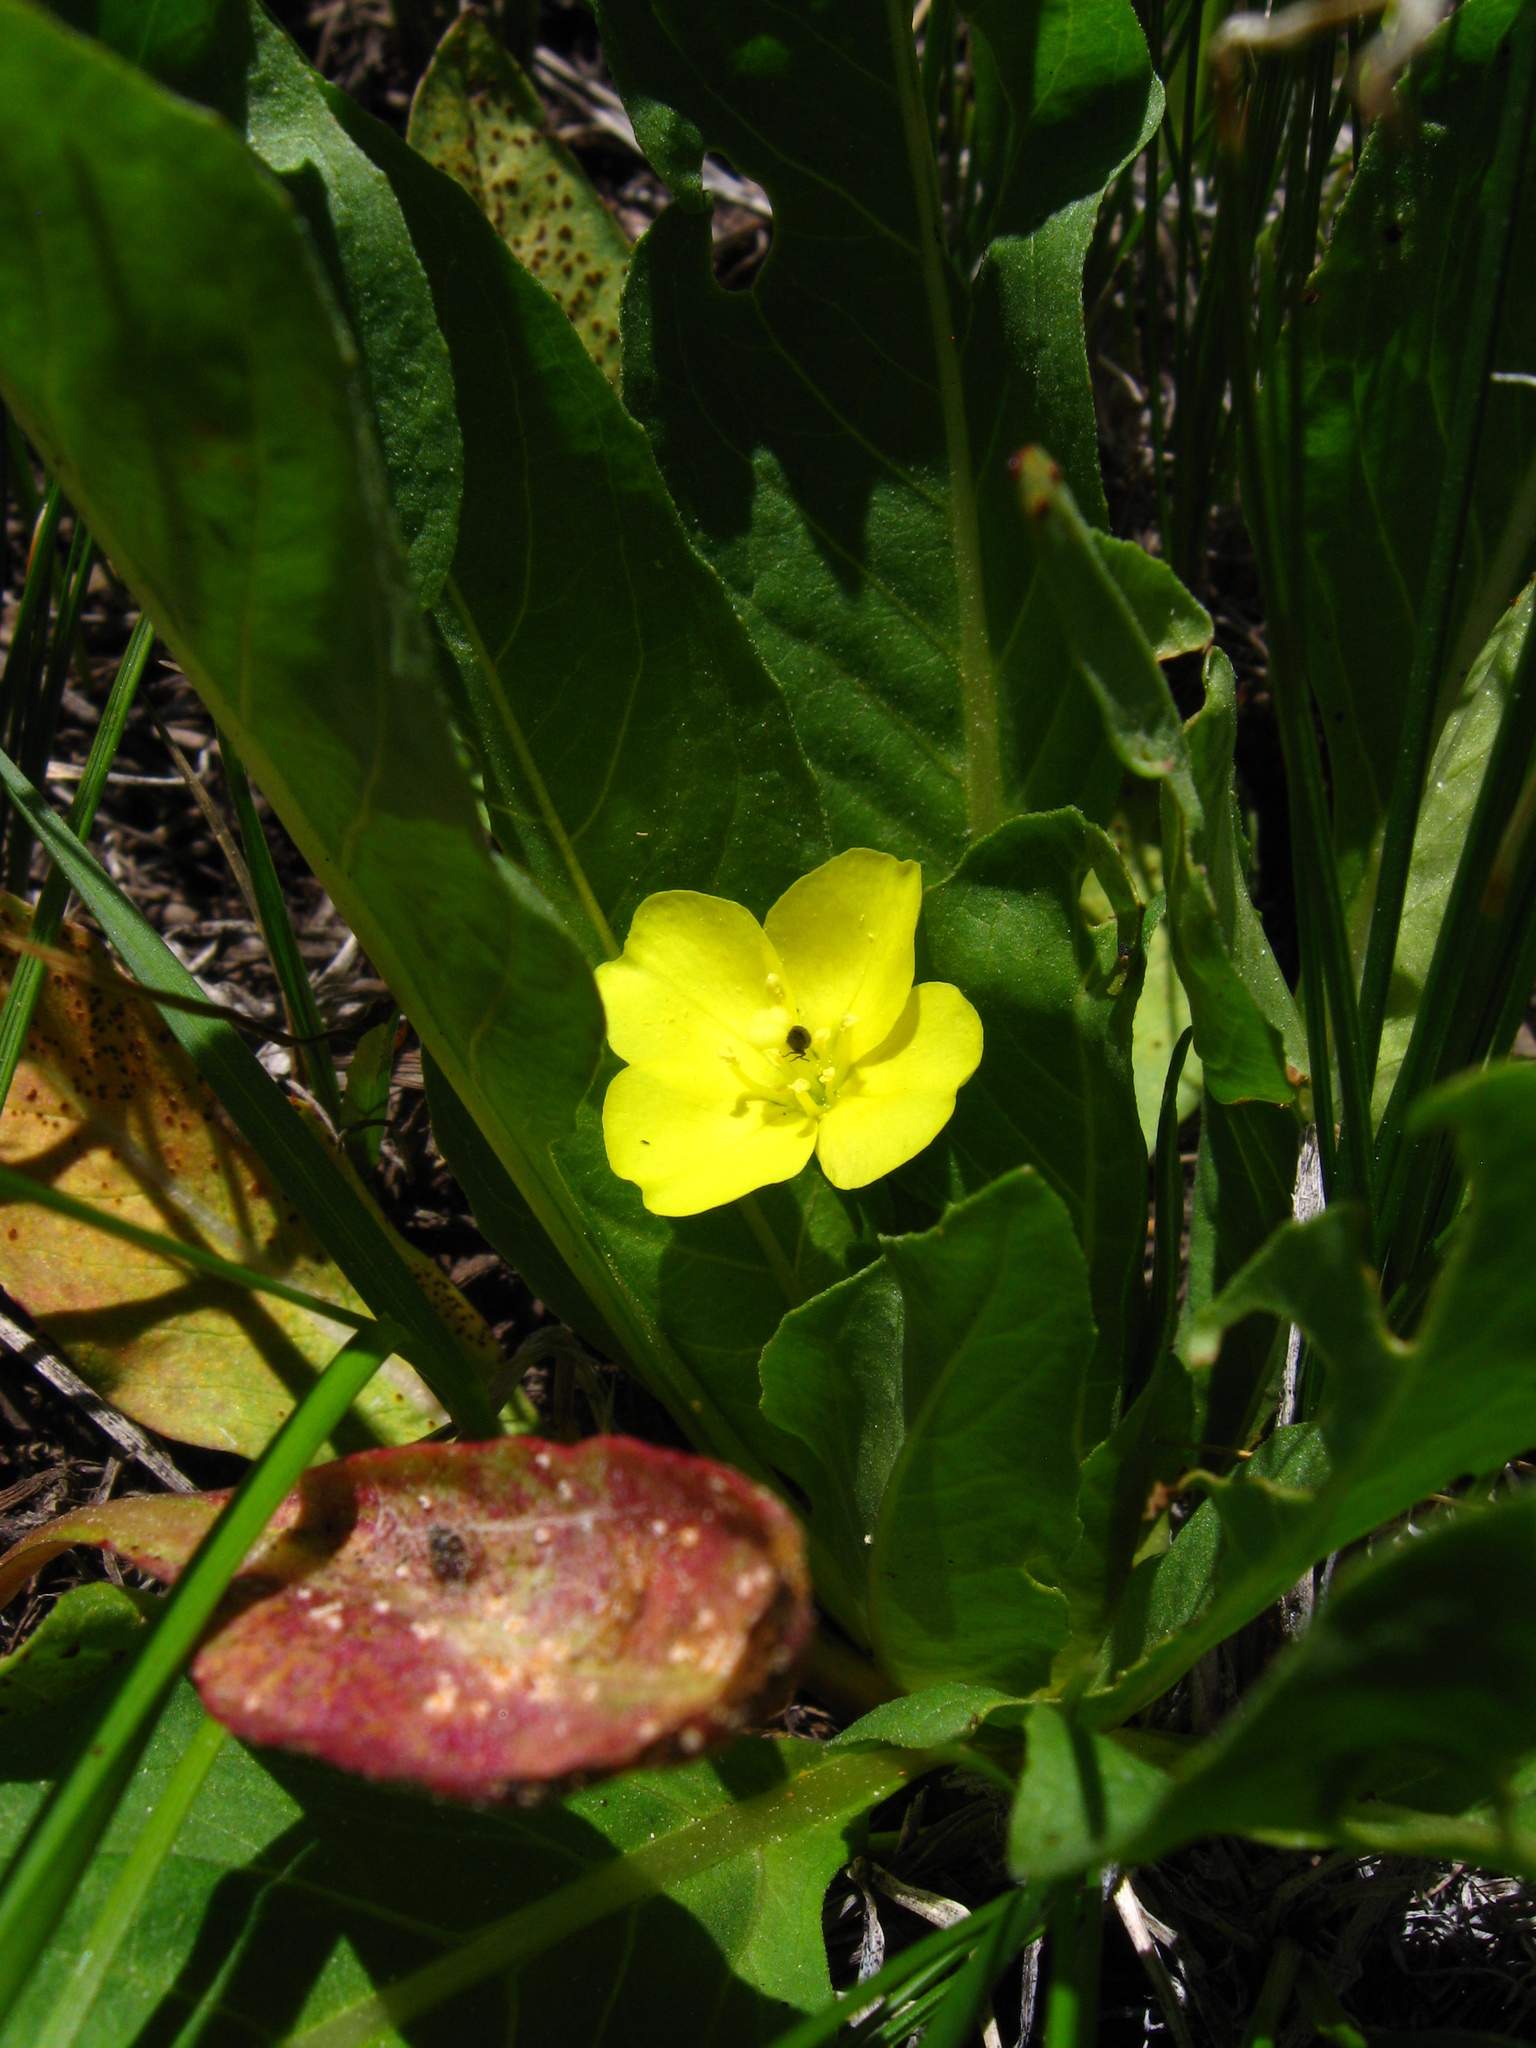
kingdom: Plantae
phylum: Tracheophyta
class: Magnoliopsida
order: Myrtales
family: Onagraceae
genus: Taraxia
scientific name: Taraxia subacaulis
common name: Diffuseflower evening primrose
